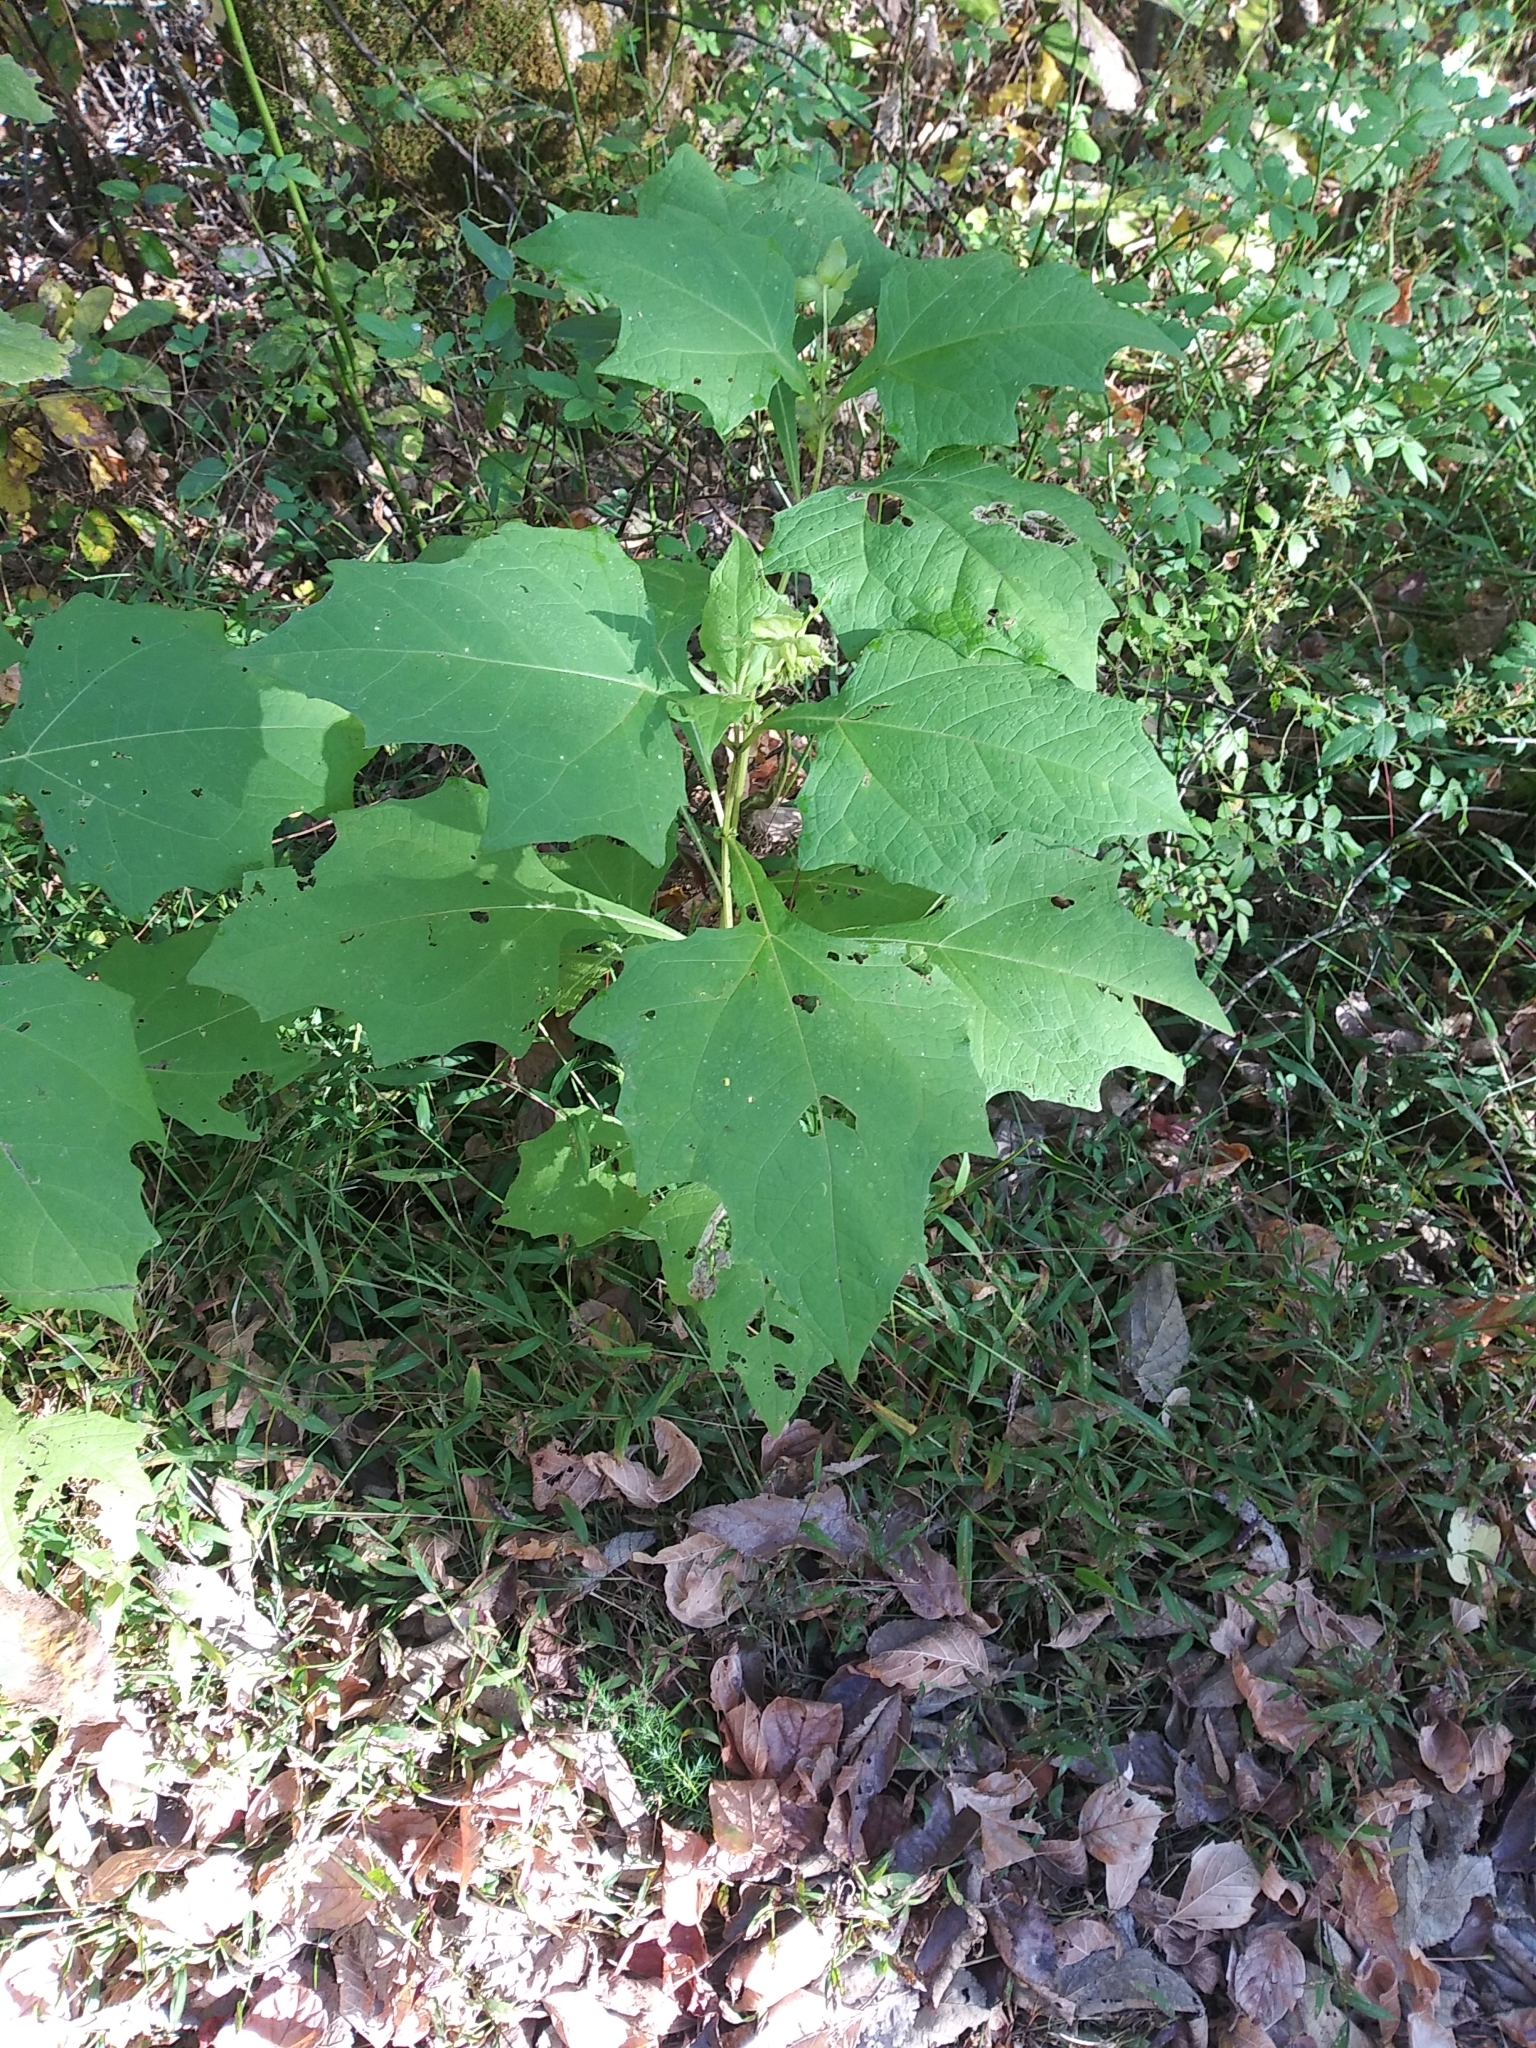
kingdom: Plantae
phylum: Tracheophyta
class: Magnoliopsida
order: Asterales
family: Asteraceae
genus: Smallanthus
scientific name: Smallanthus uvedalia
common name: Bear's-foot
